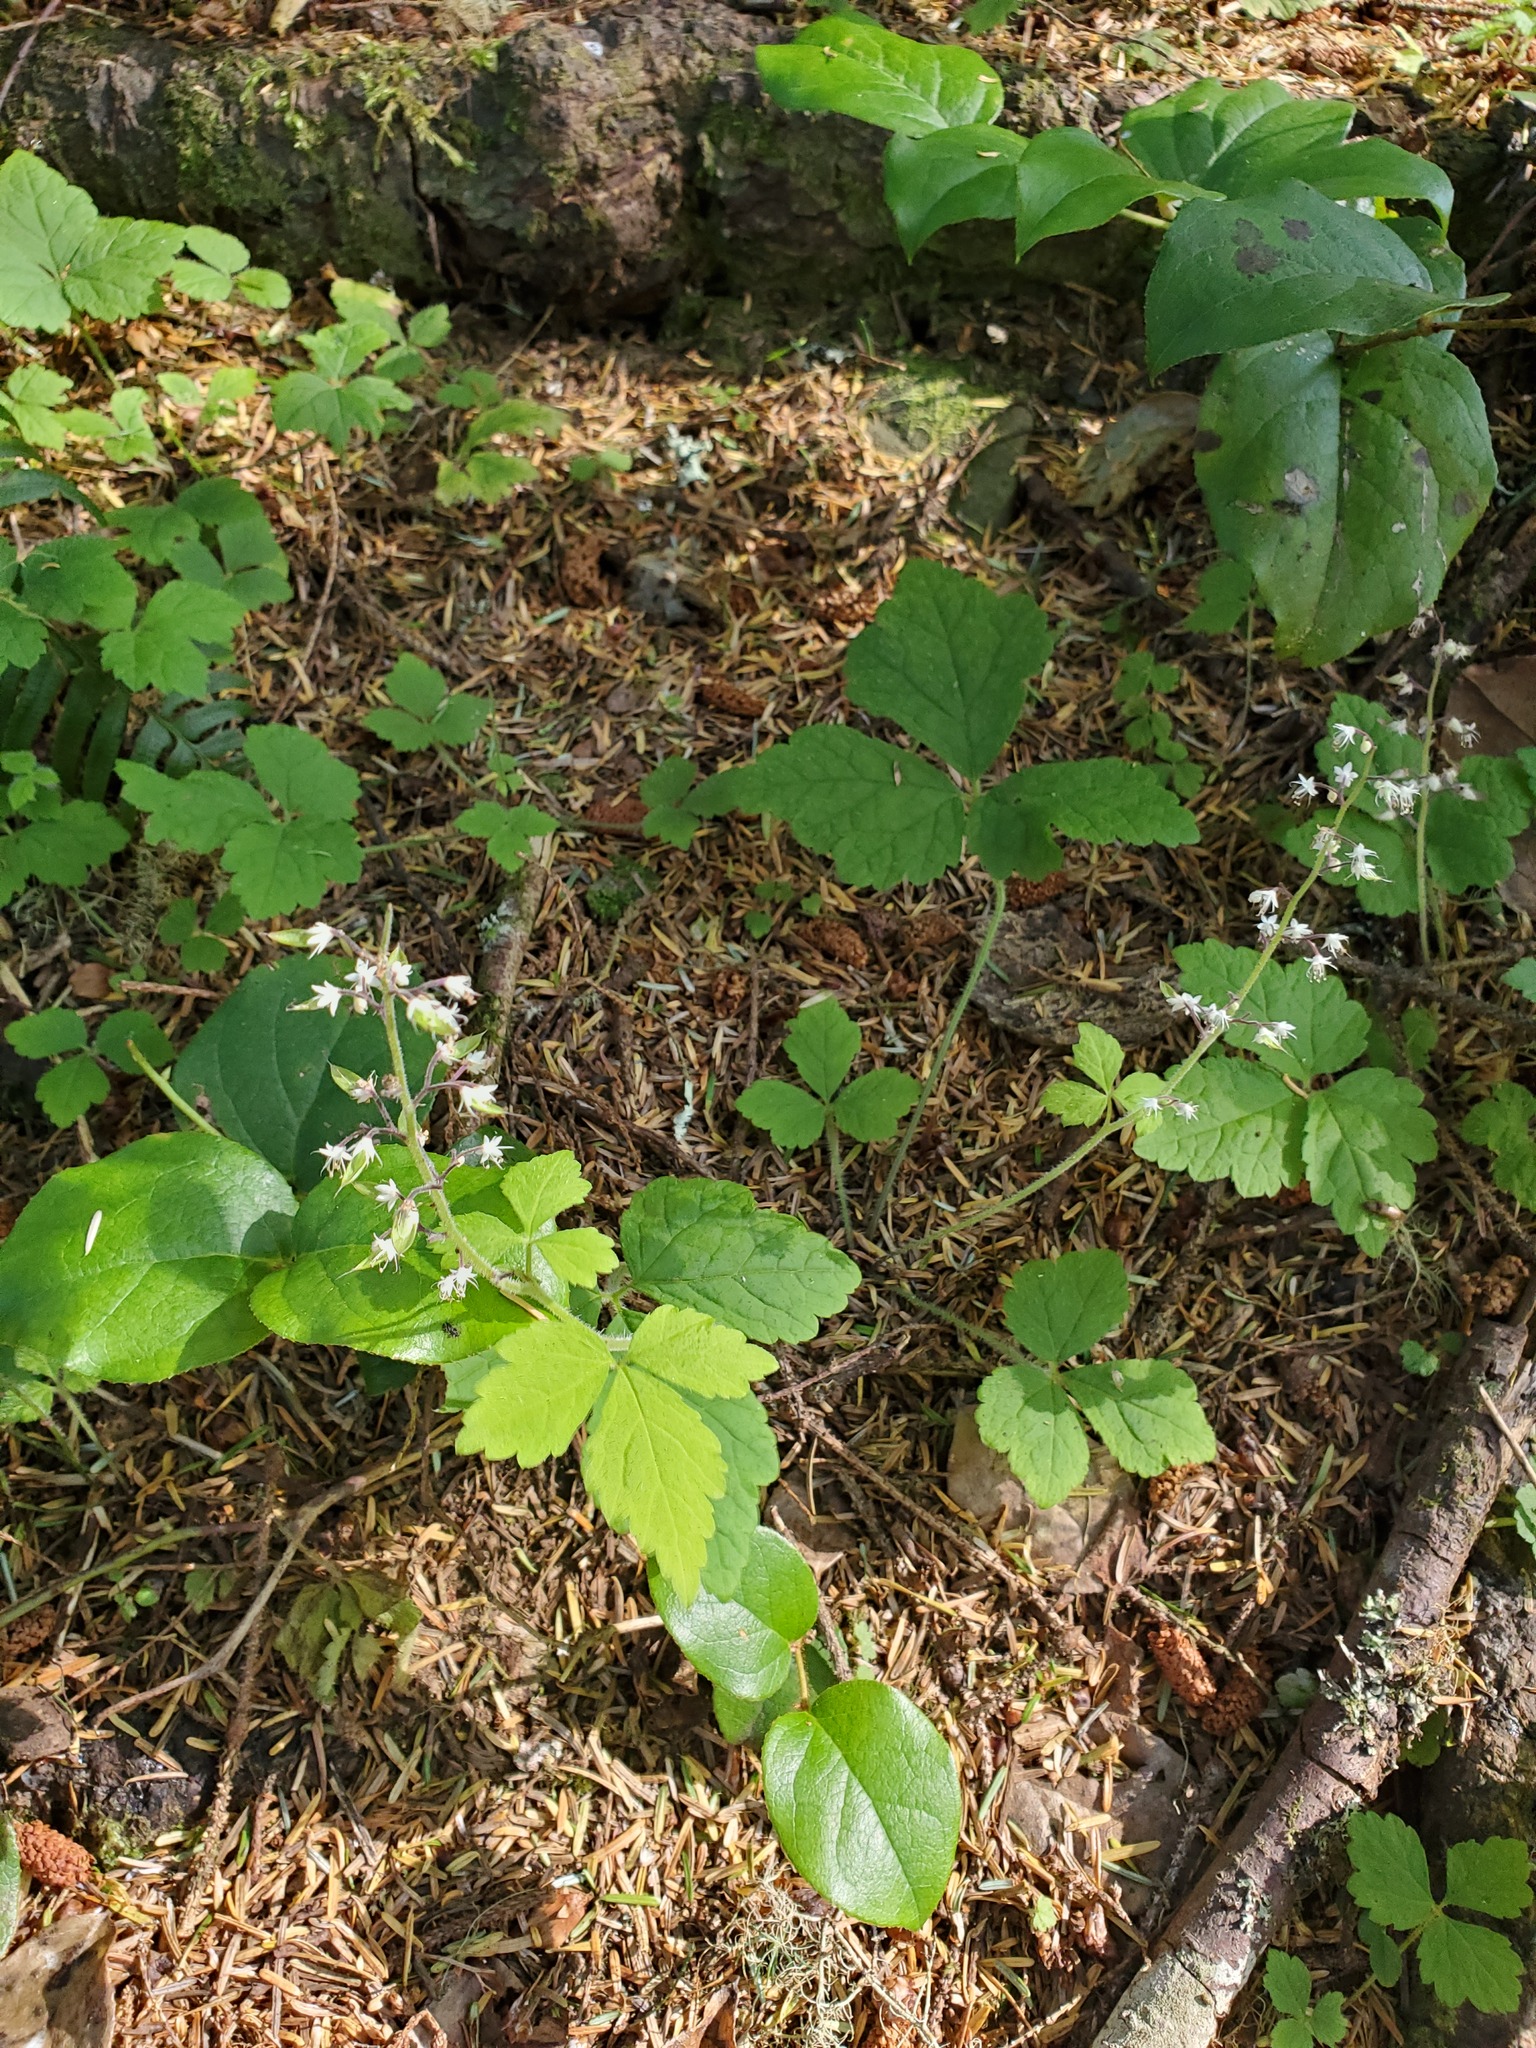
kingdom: Plantae
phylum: Tracheophyta
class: Magnoliopsida
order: Saxifragales
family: Saxifragaceae
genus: Tiarella
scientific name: Tiarella trifoliata
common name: Sugar-scoop
